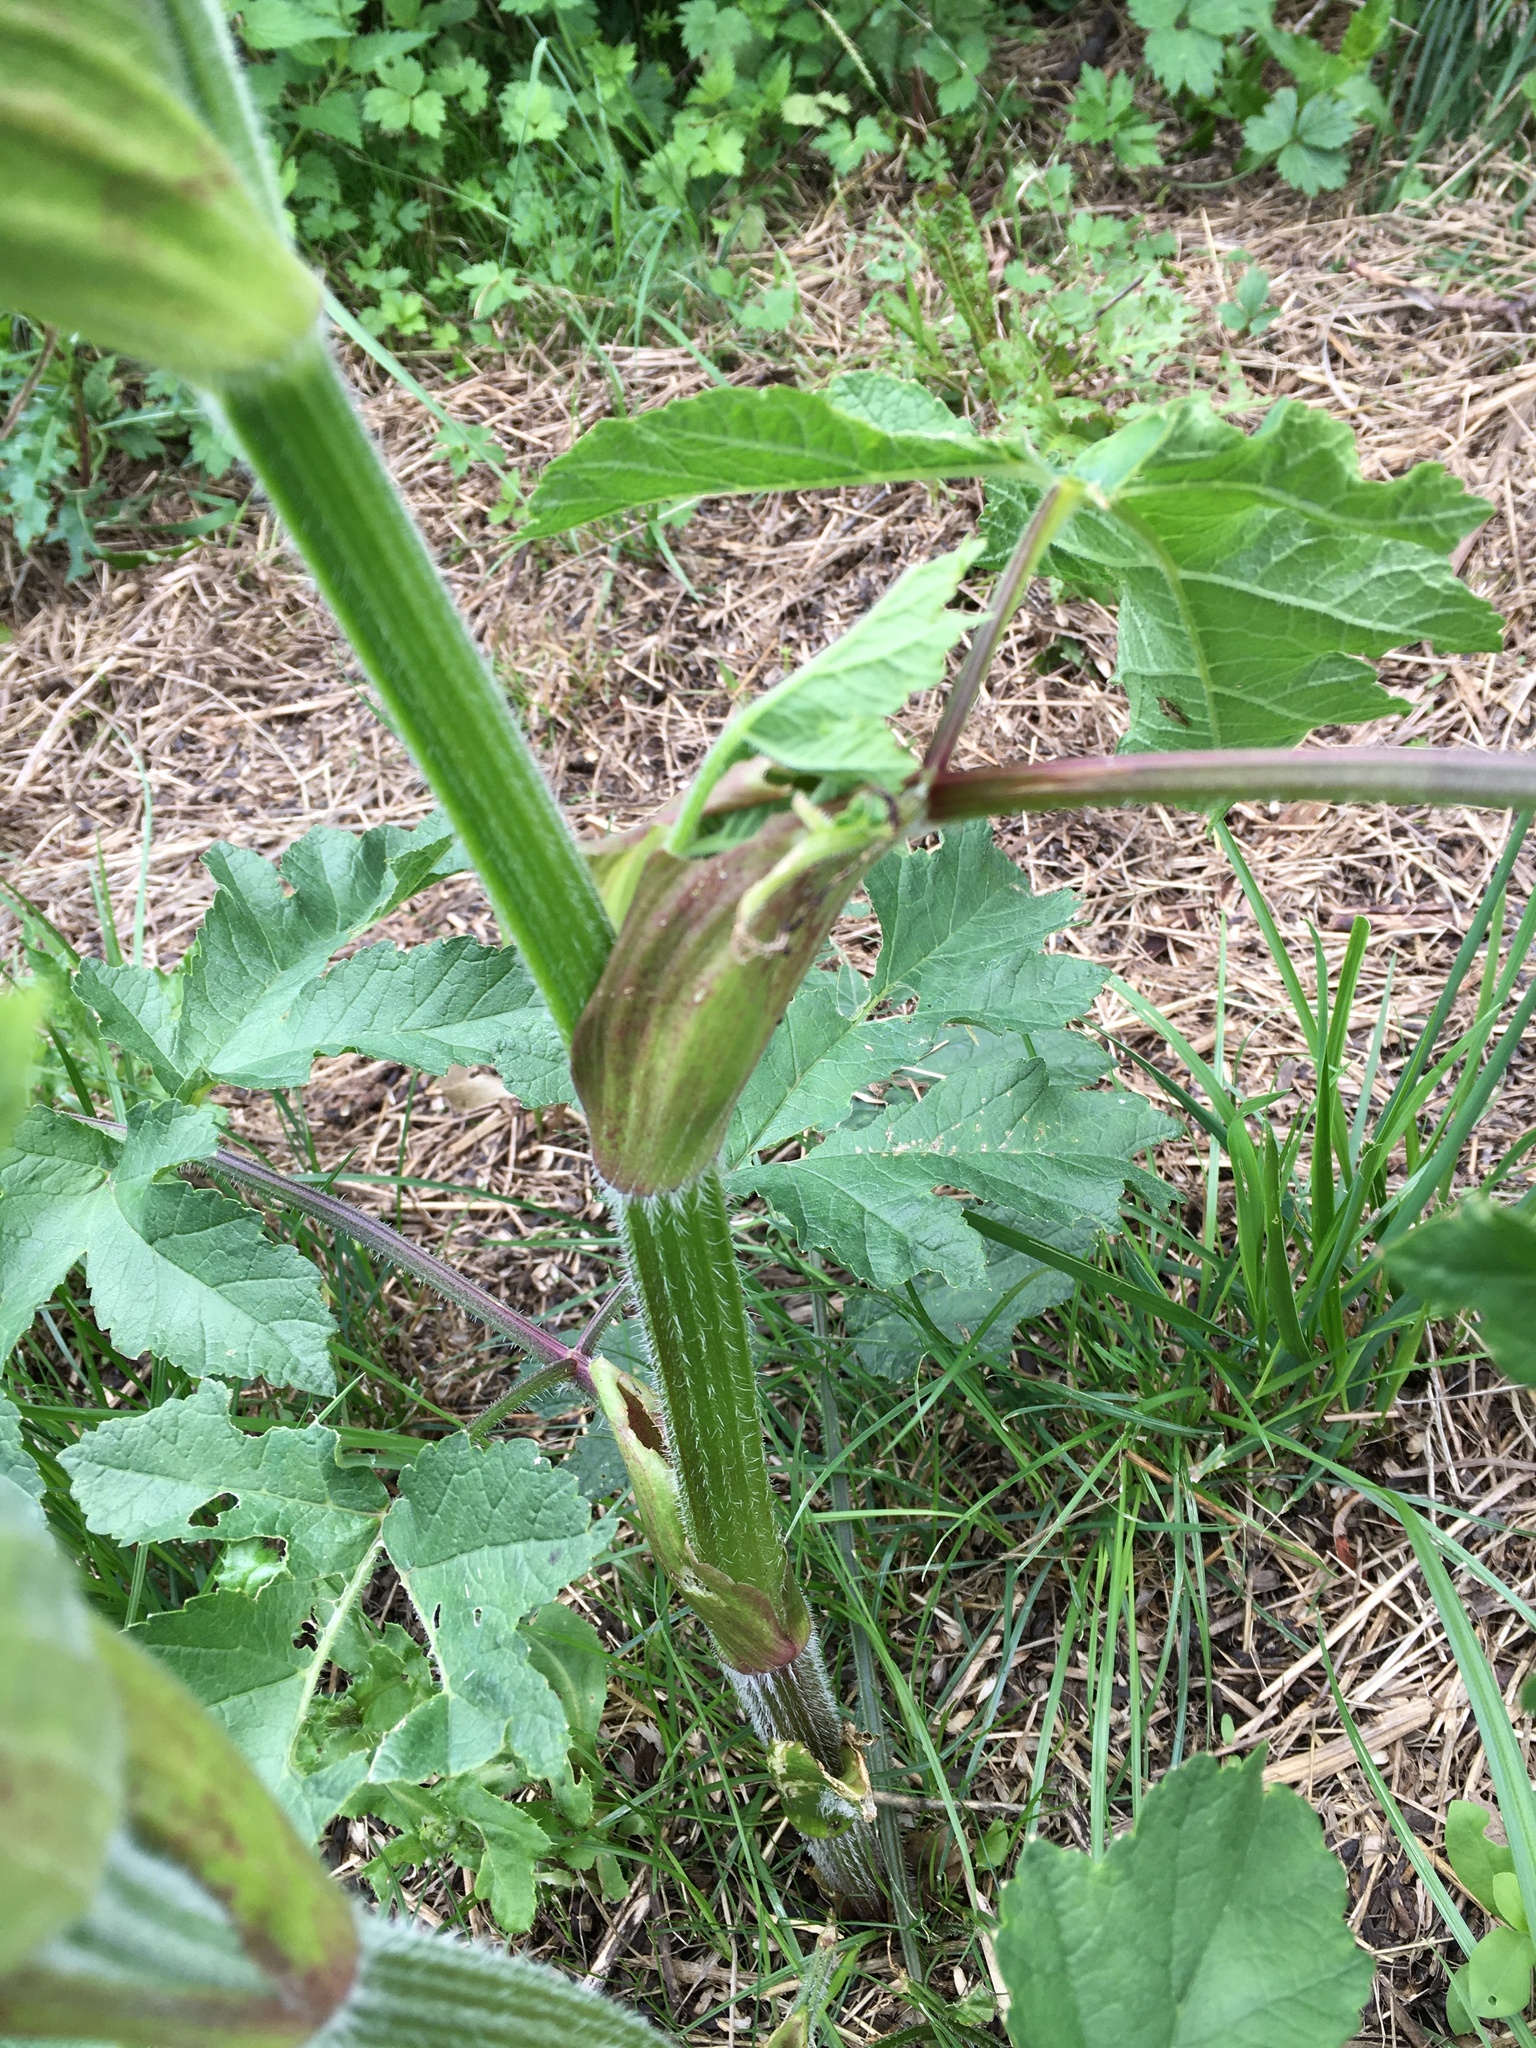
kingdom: Plantae
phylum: Tracheophyta
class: Magnoliopsida
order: Apiales
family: Apiaceae
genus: Heracleum
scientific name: Heracleum sphondylium
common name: Hogweed
